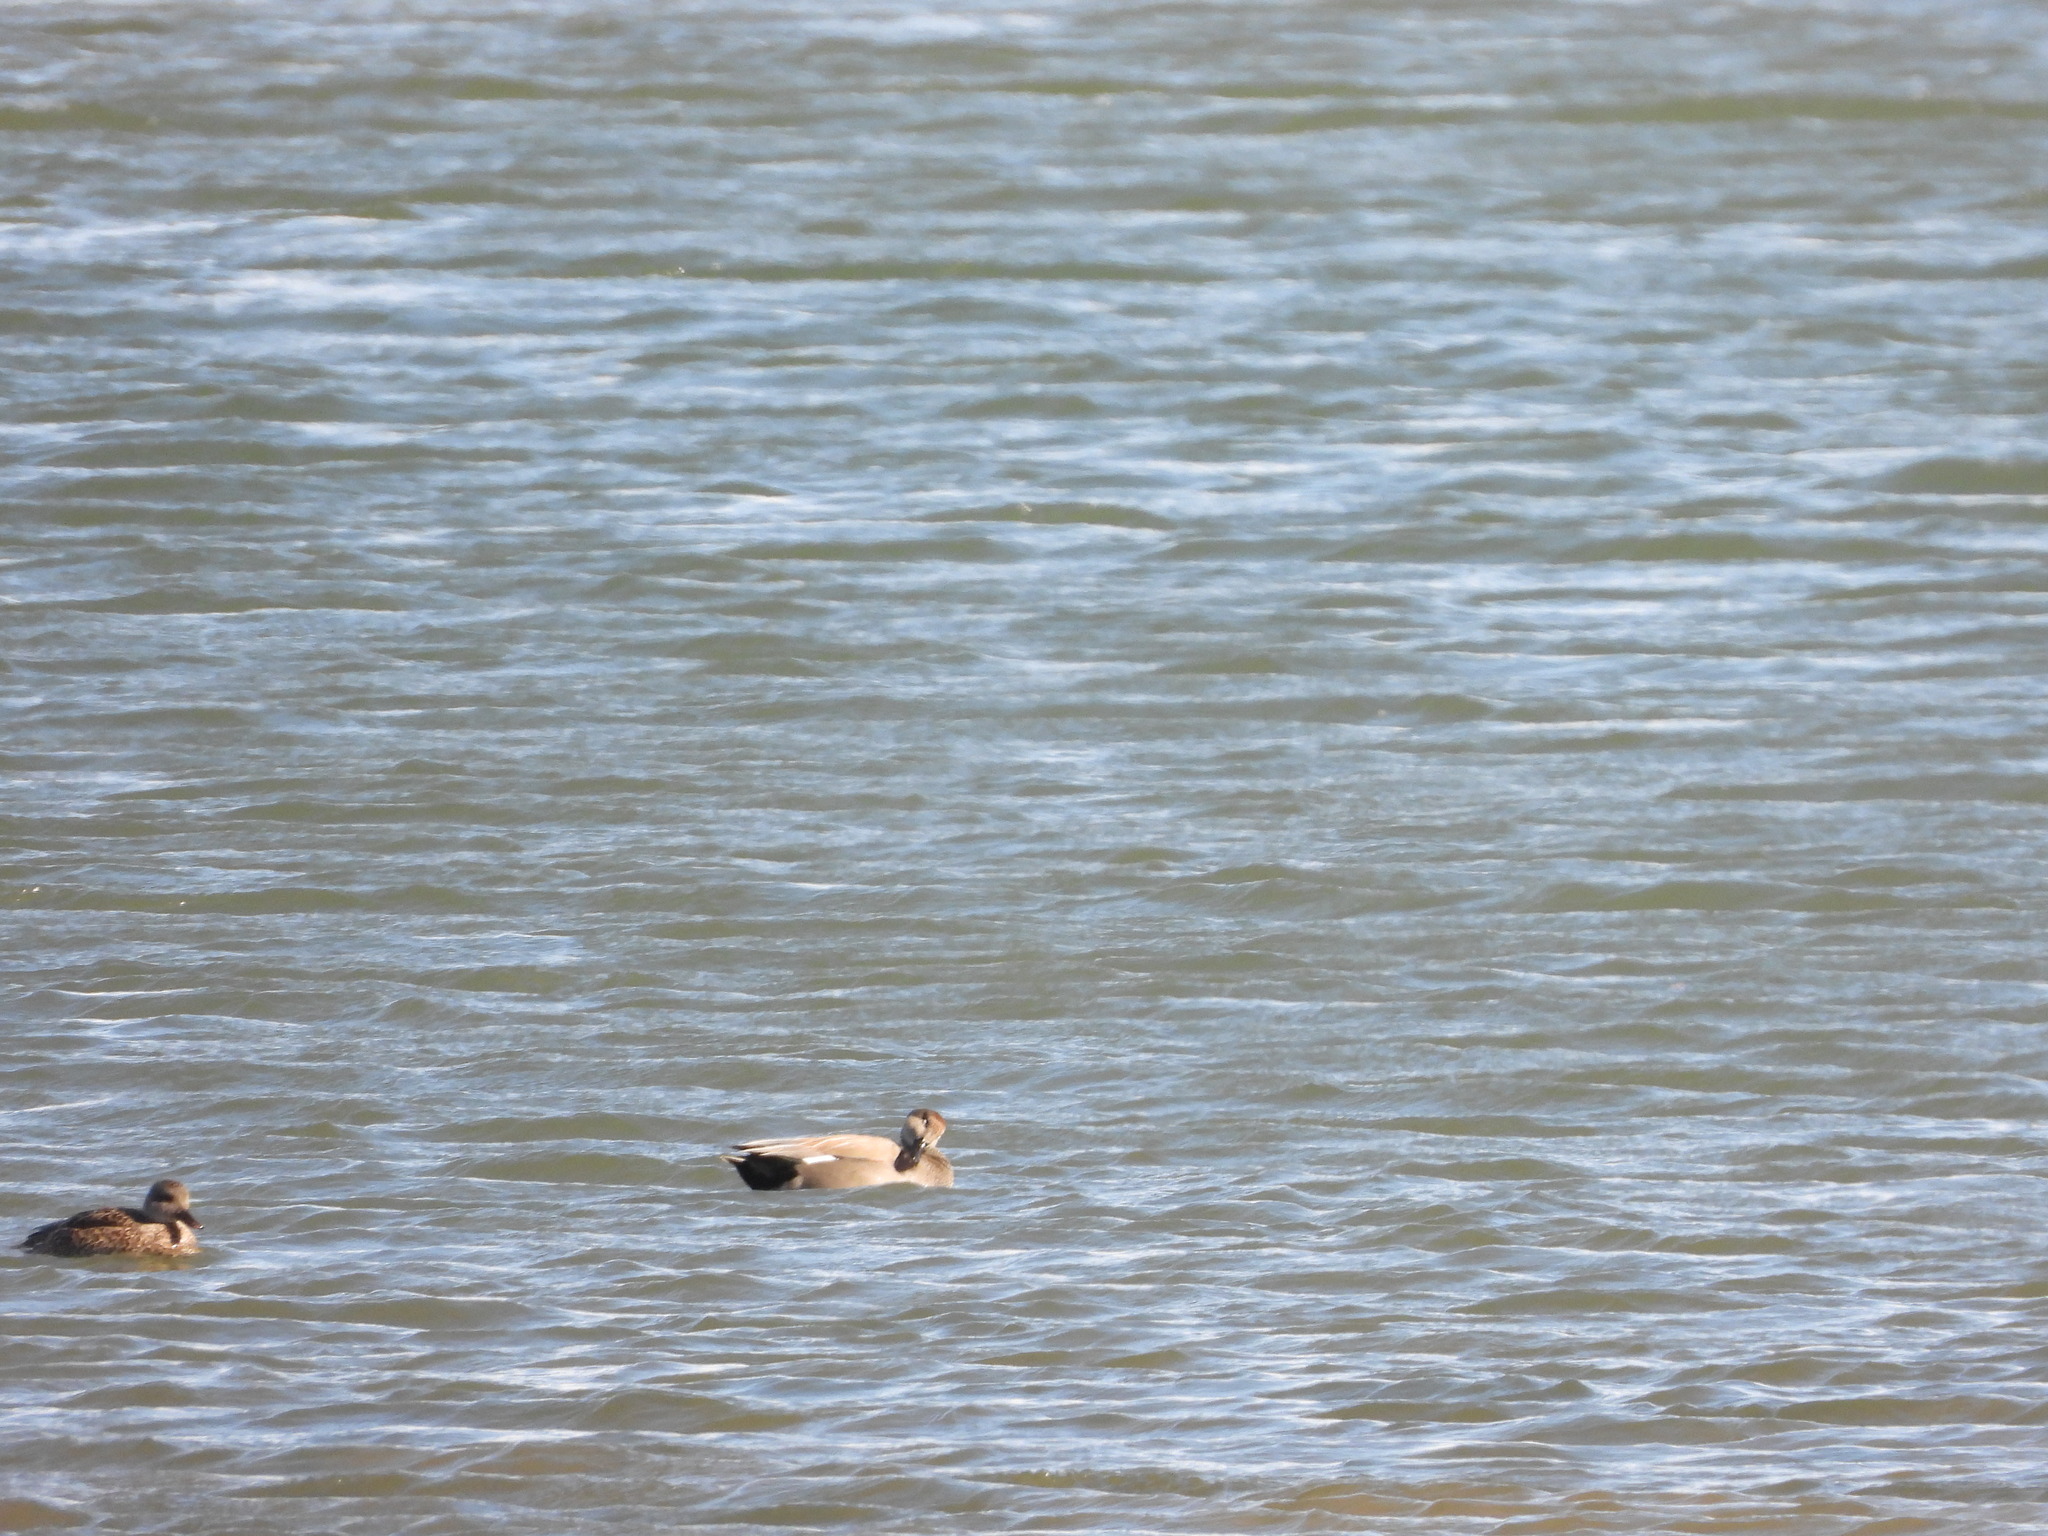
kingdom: Animalia
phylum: Chordata
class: Aves
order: Anseriformes
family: Anatidae
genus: Mareca
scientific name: Mareca strepera
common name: Gadwall
